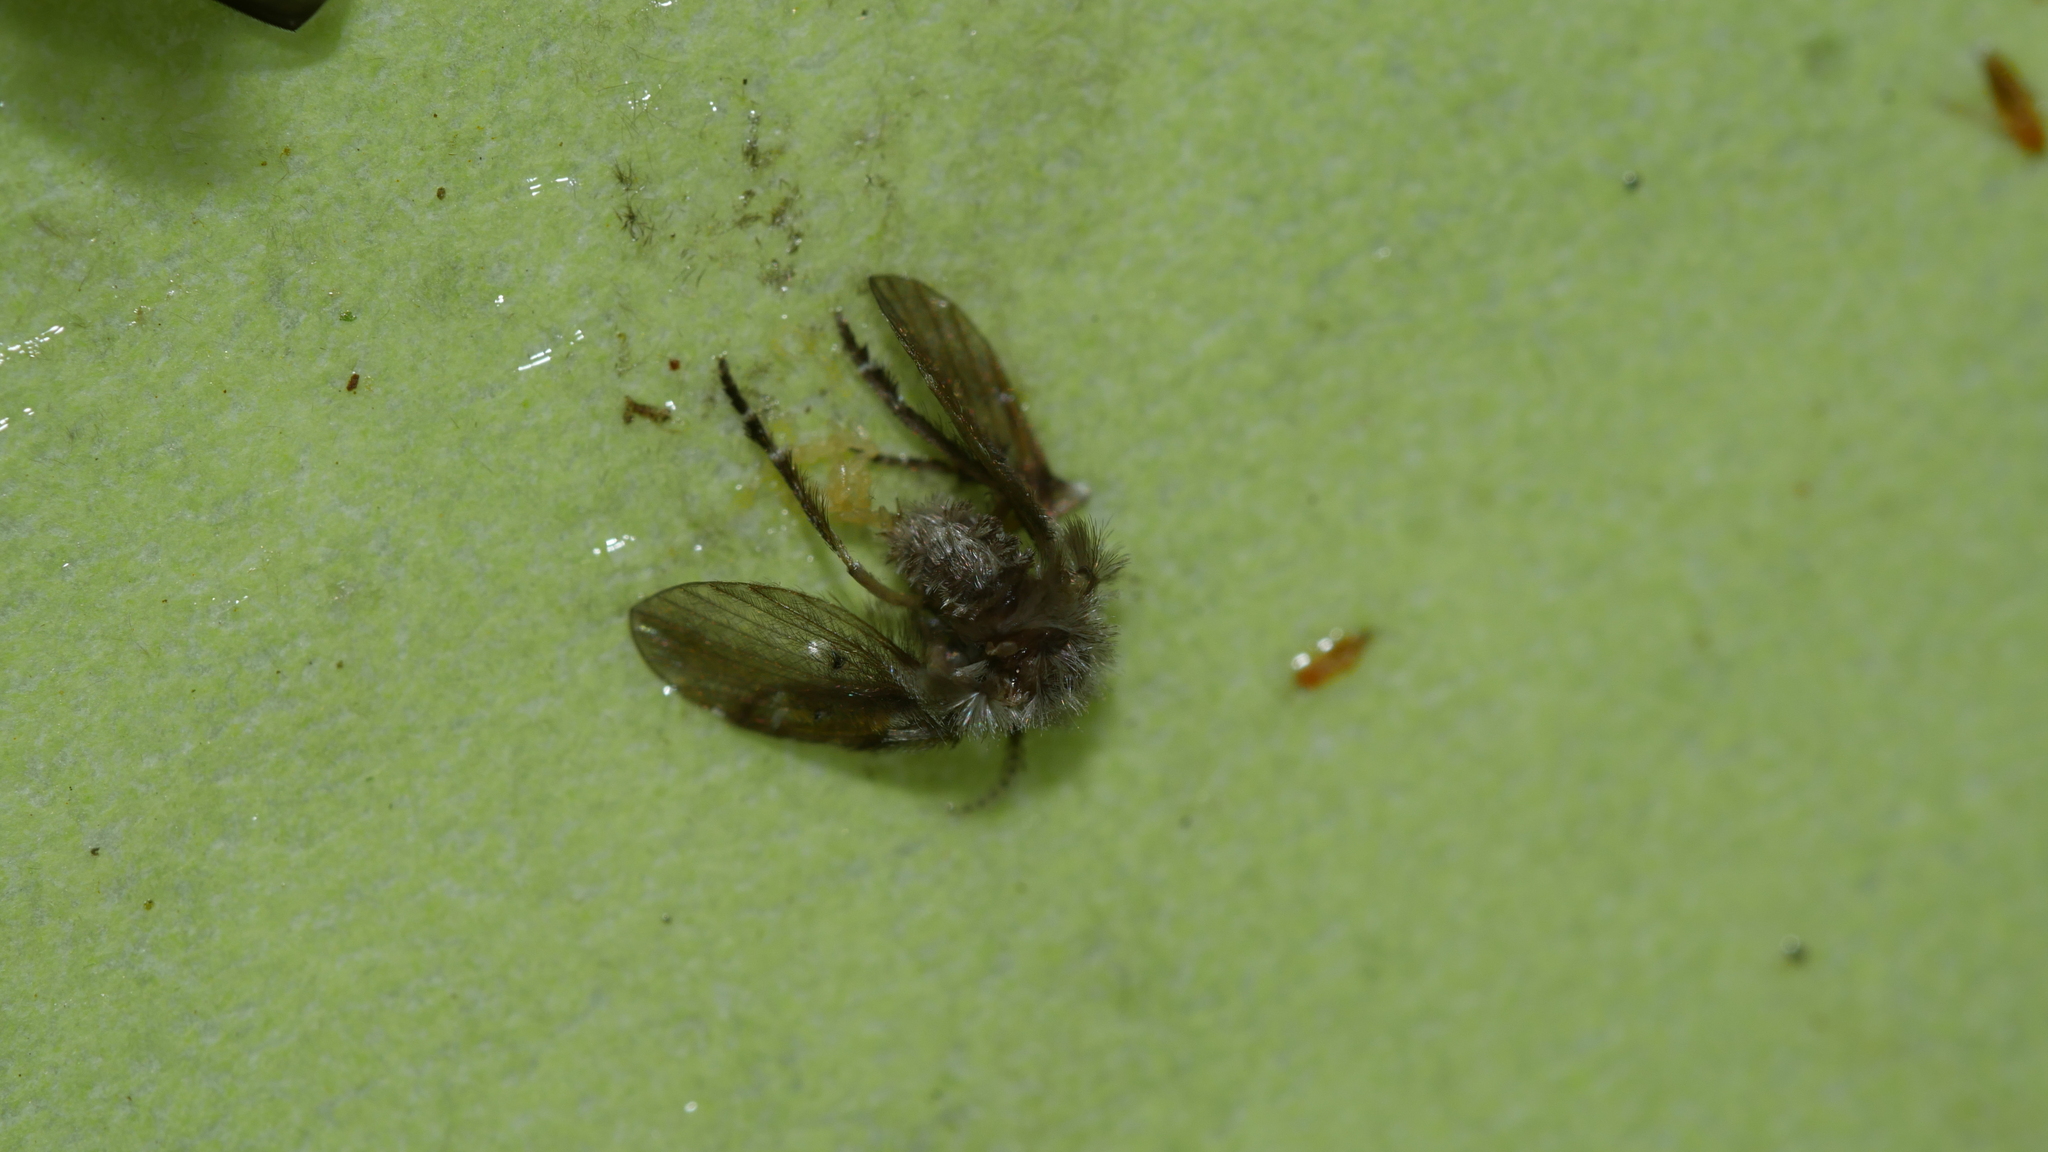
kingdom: Animalia
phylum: Arthropoda
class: Insecta
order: Diptera
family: Psychodidae
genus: Clogmia
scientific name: Clogmia albipunctatus
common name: White-spotted moth fly
